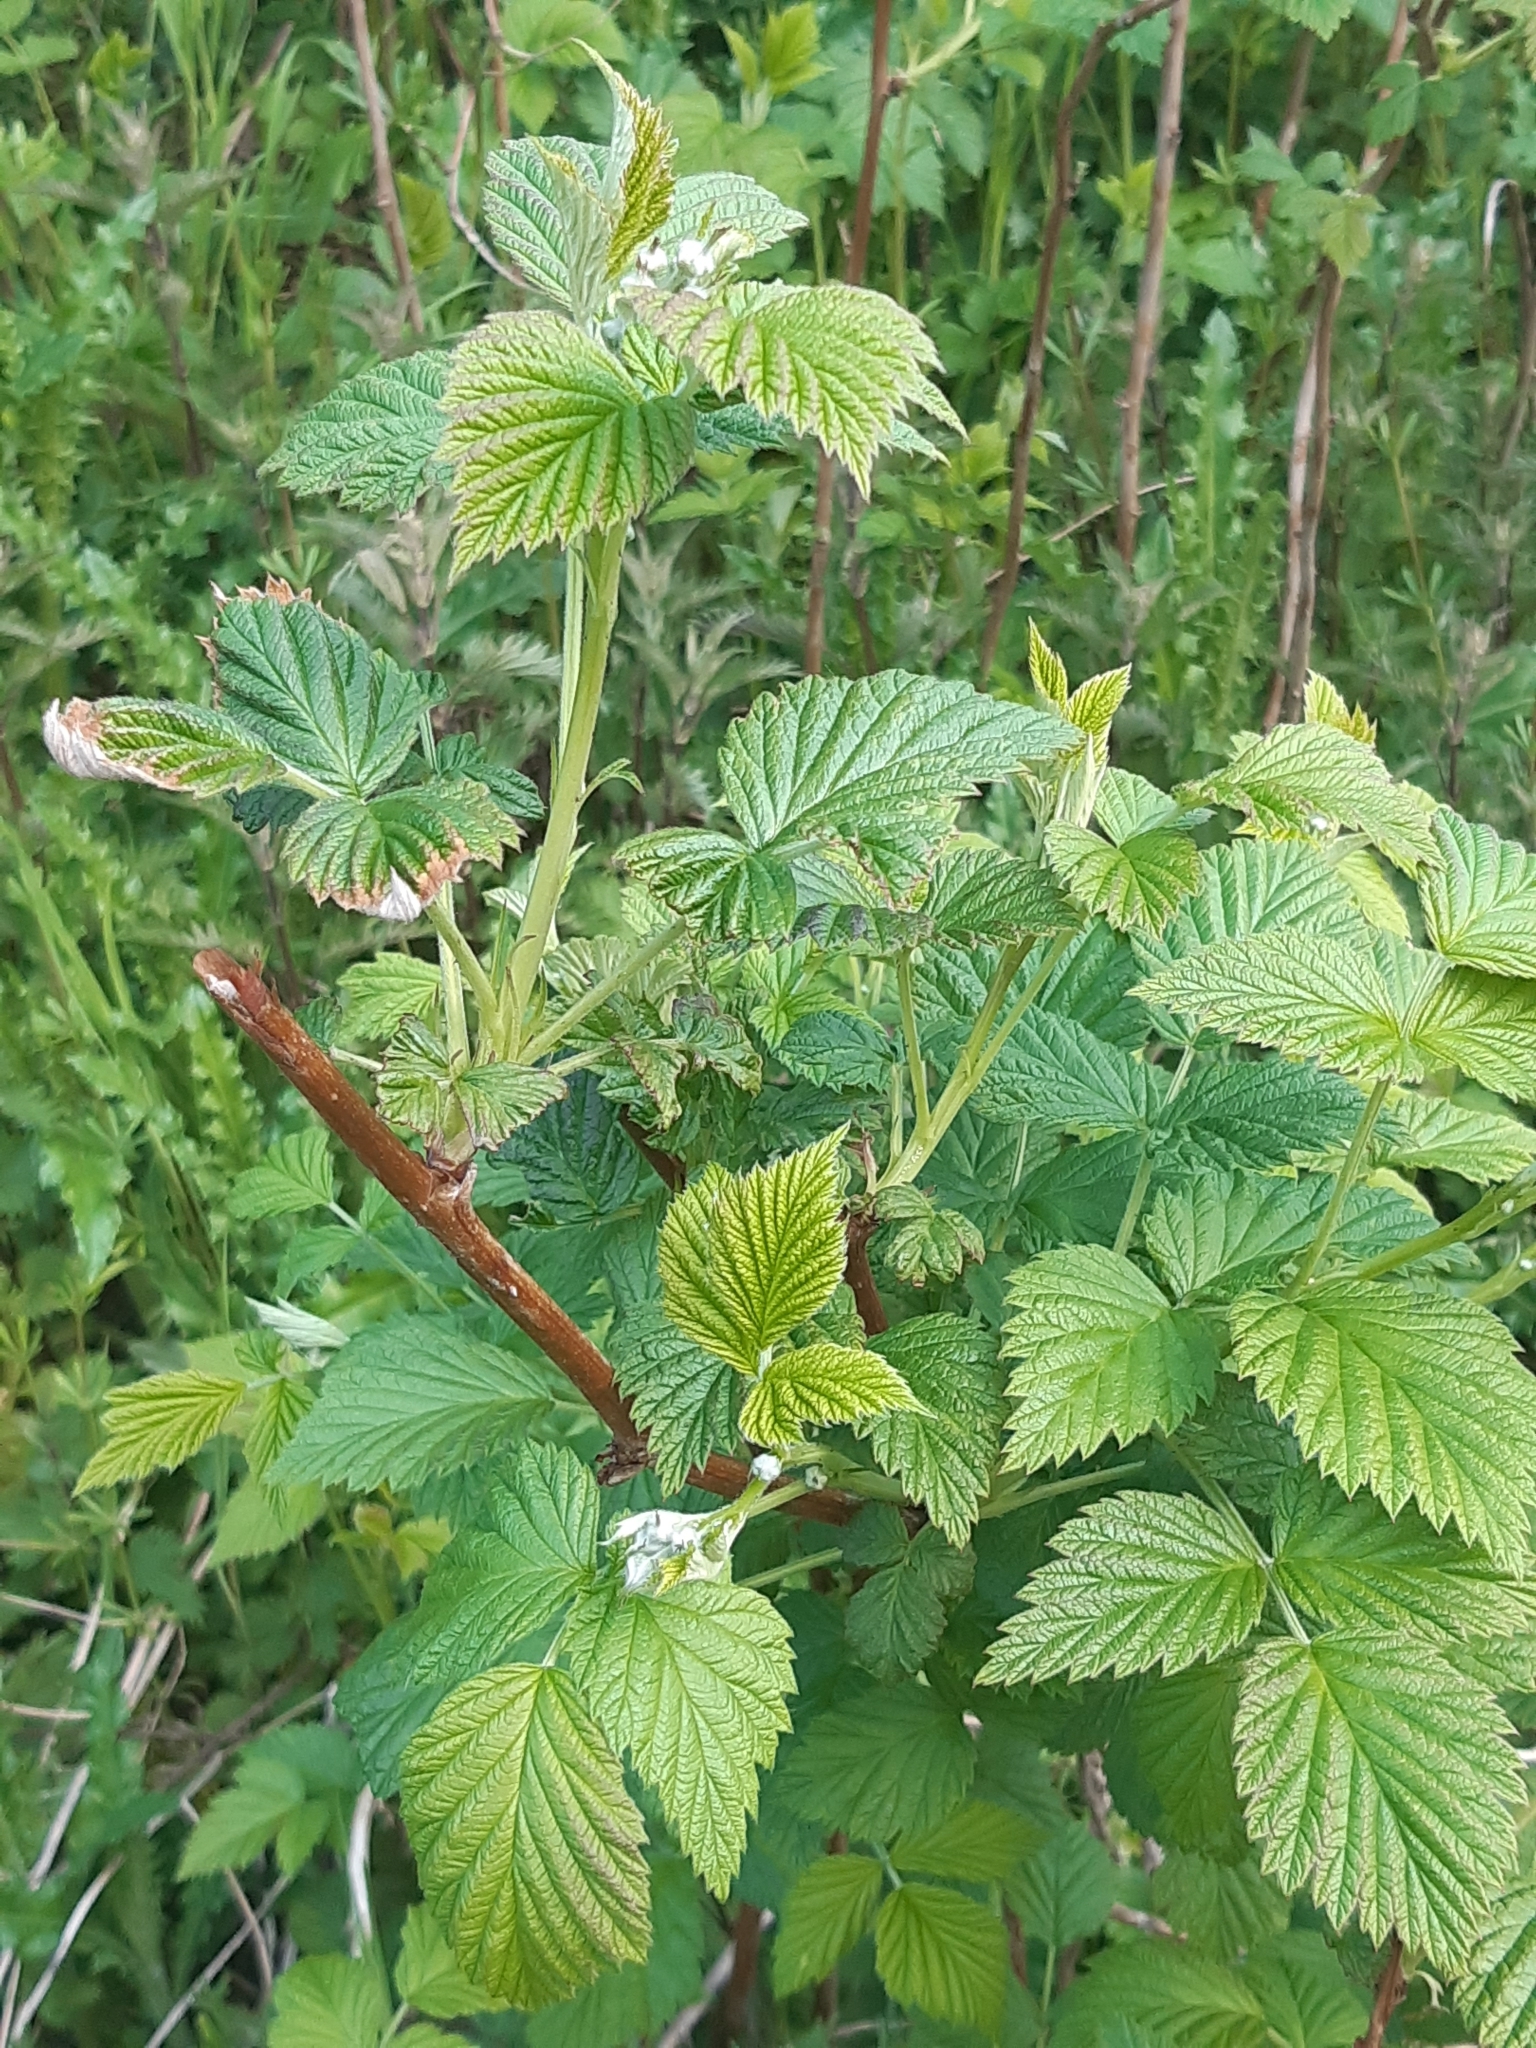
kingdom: Plantae
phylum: Tracheophyta
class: Magnoliopsida
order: Rosales
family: Rosaceae
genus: Rubus
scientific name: Rubus idaeus
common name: Raspberry
